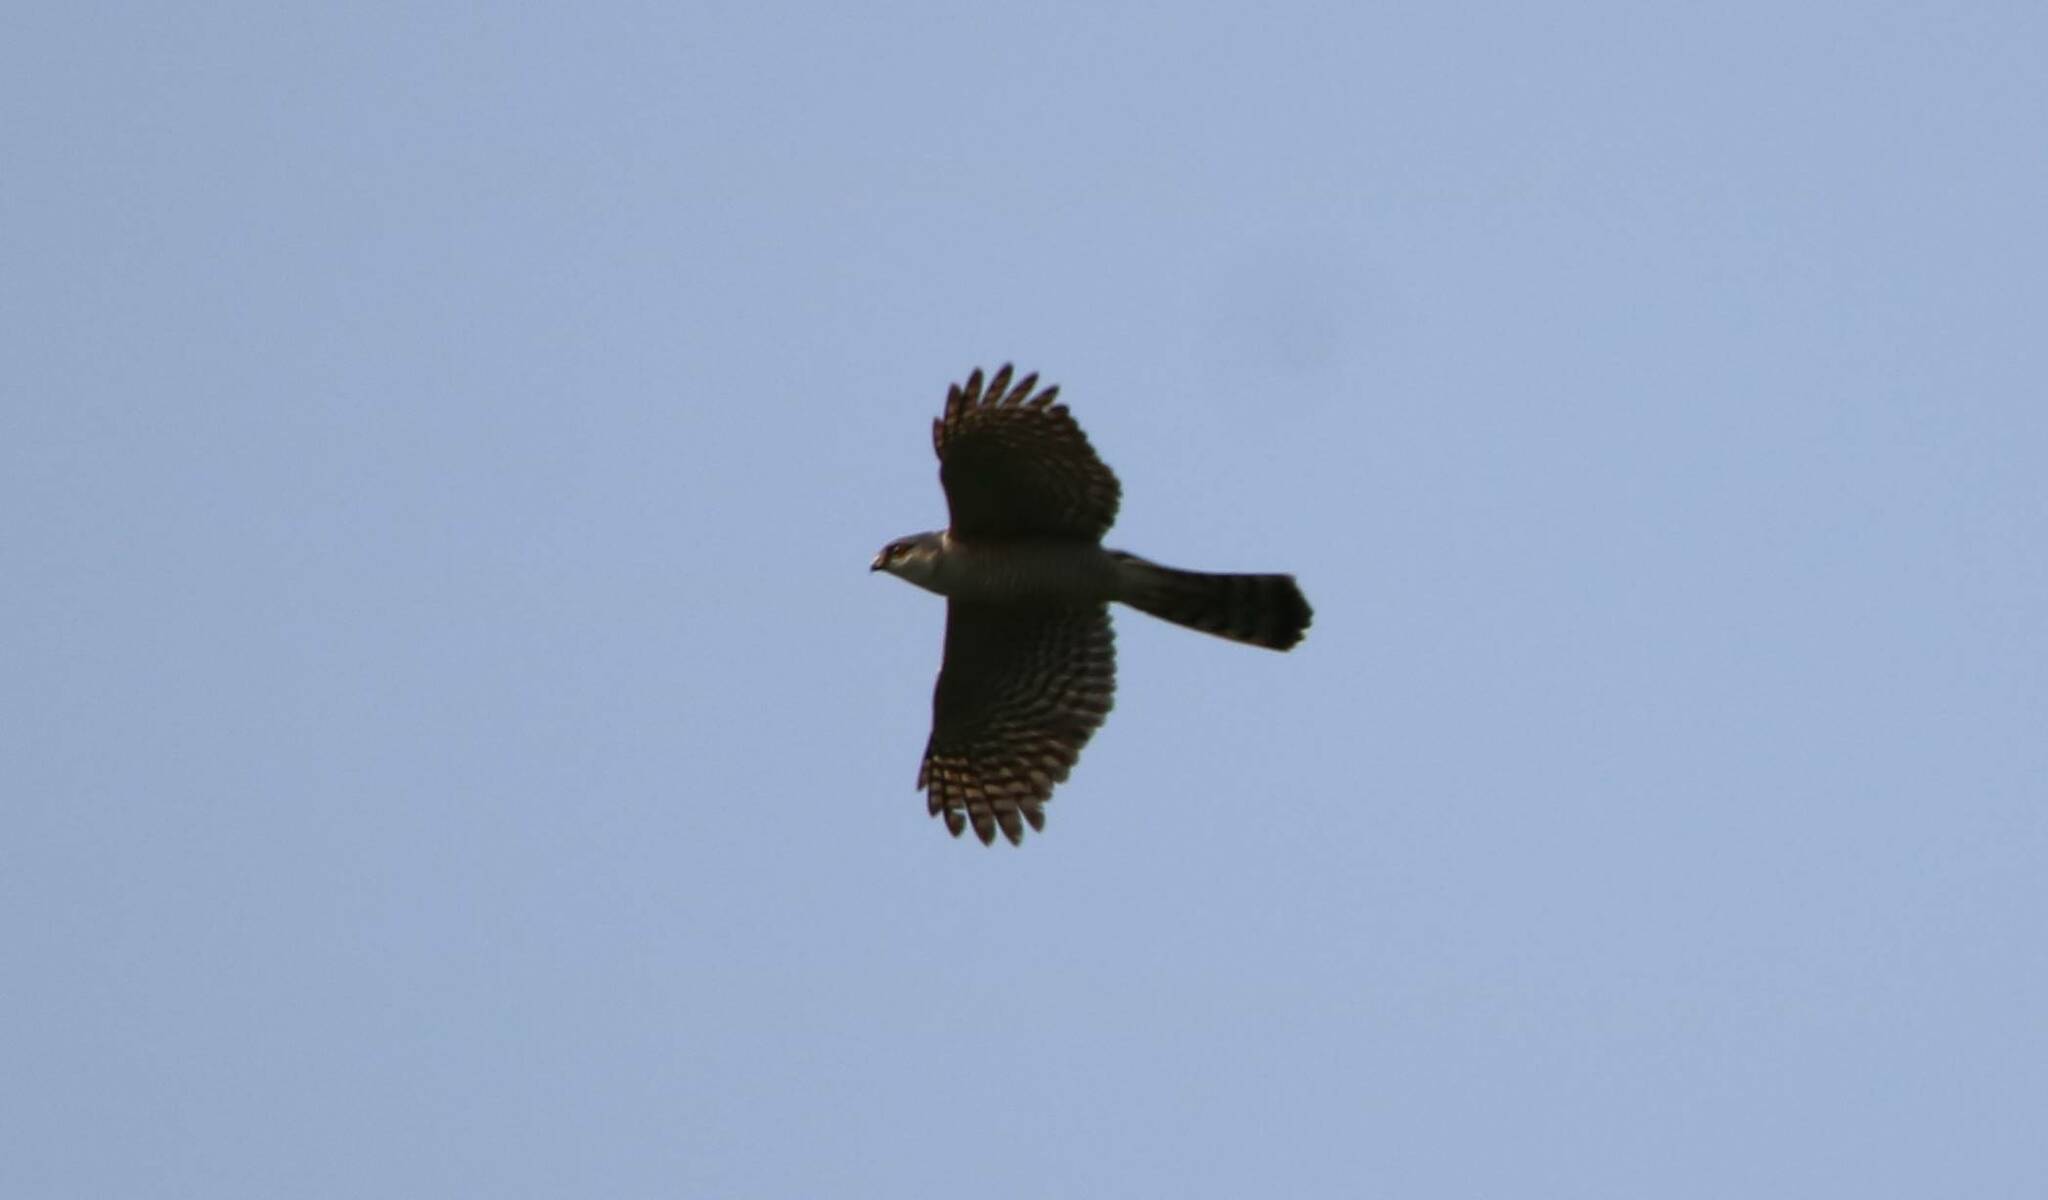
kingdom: Animalia
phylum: Chordata
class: Aves
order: Accipitriformes
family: Accipitridae
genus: Accipiter
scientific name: Accipiter nisus
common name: Eurasian sparrowhawk
